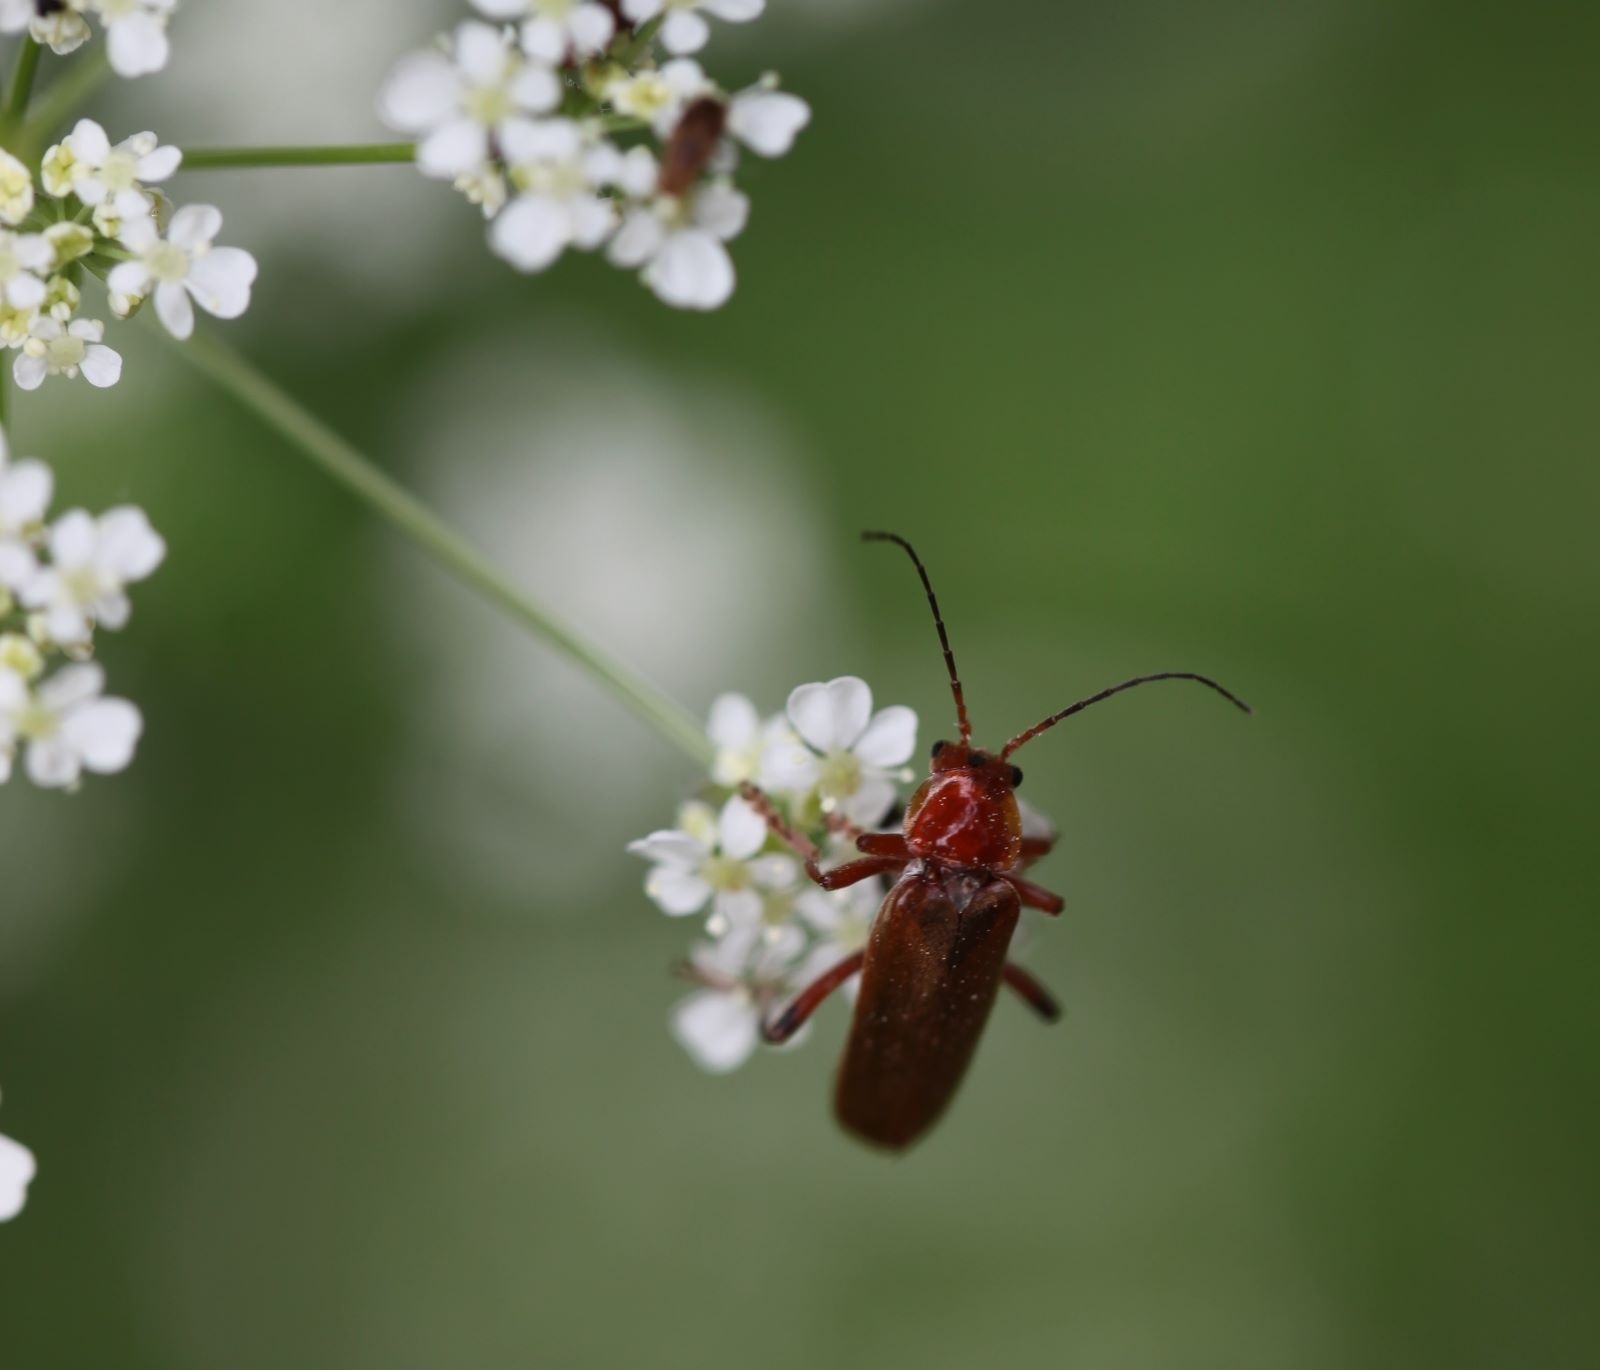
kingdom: Animalia
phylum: Arthropoda
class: Insecta
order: Coleoptera
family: Cantharidae
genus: Cantharis
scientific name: Cantharis livida
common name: Livid soldier beetle
